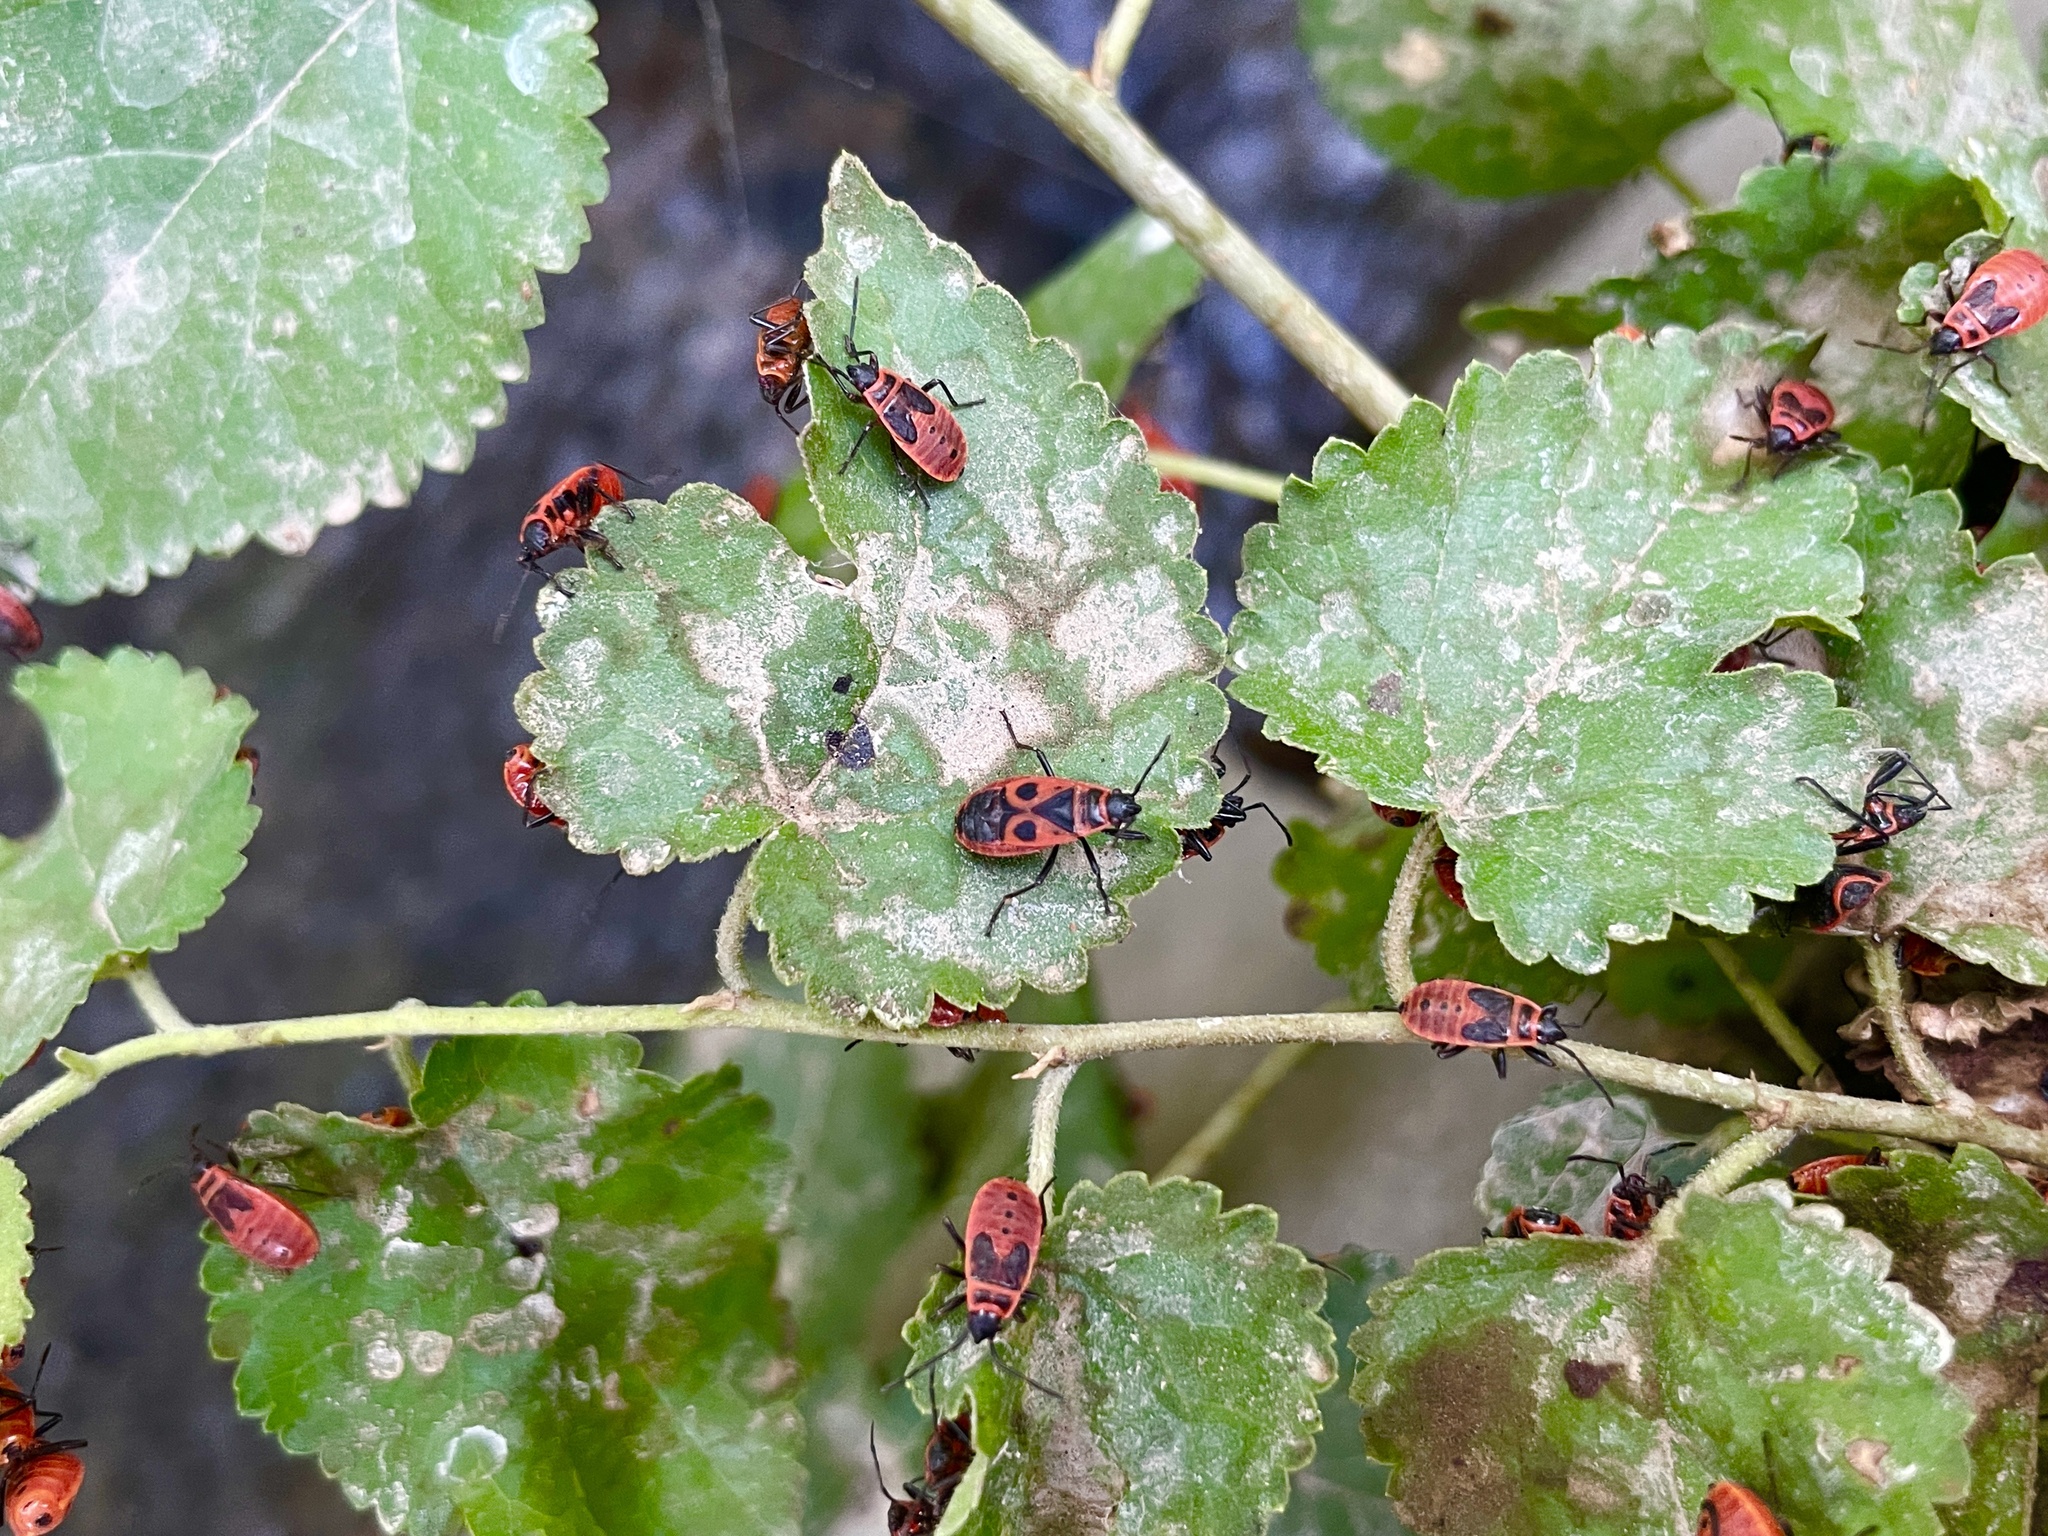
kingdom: Animalia
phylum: Arthropoda
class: Insecta
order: Hemiptera
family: Pyrrhocoridae
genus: Pyrrhocoris
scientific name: Pyrrhocoris apterus
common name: Firebug
